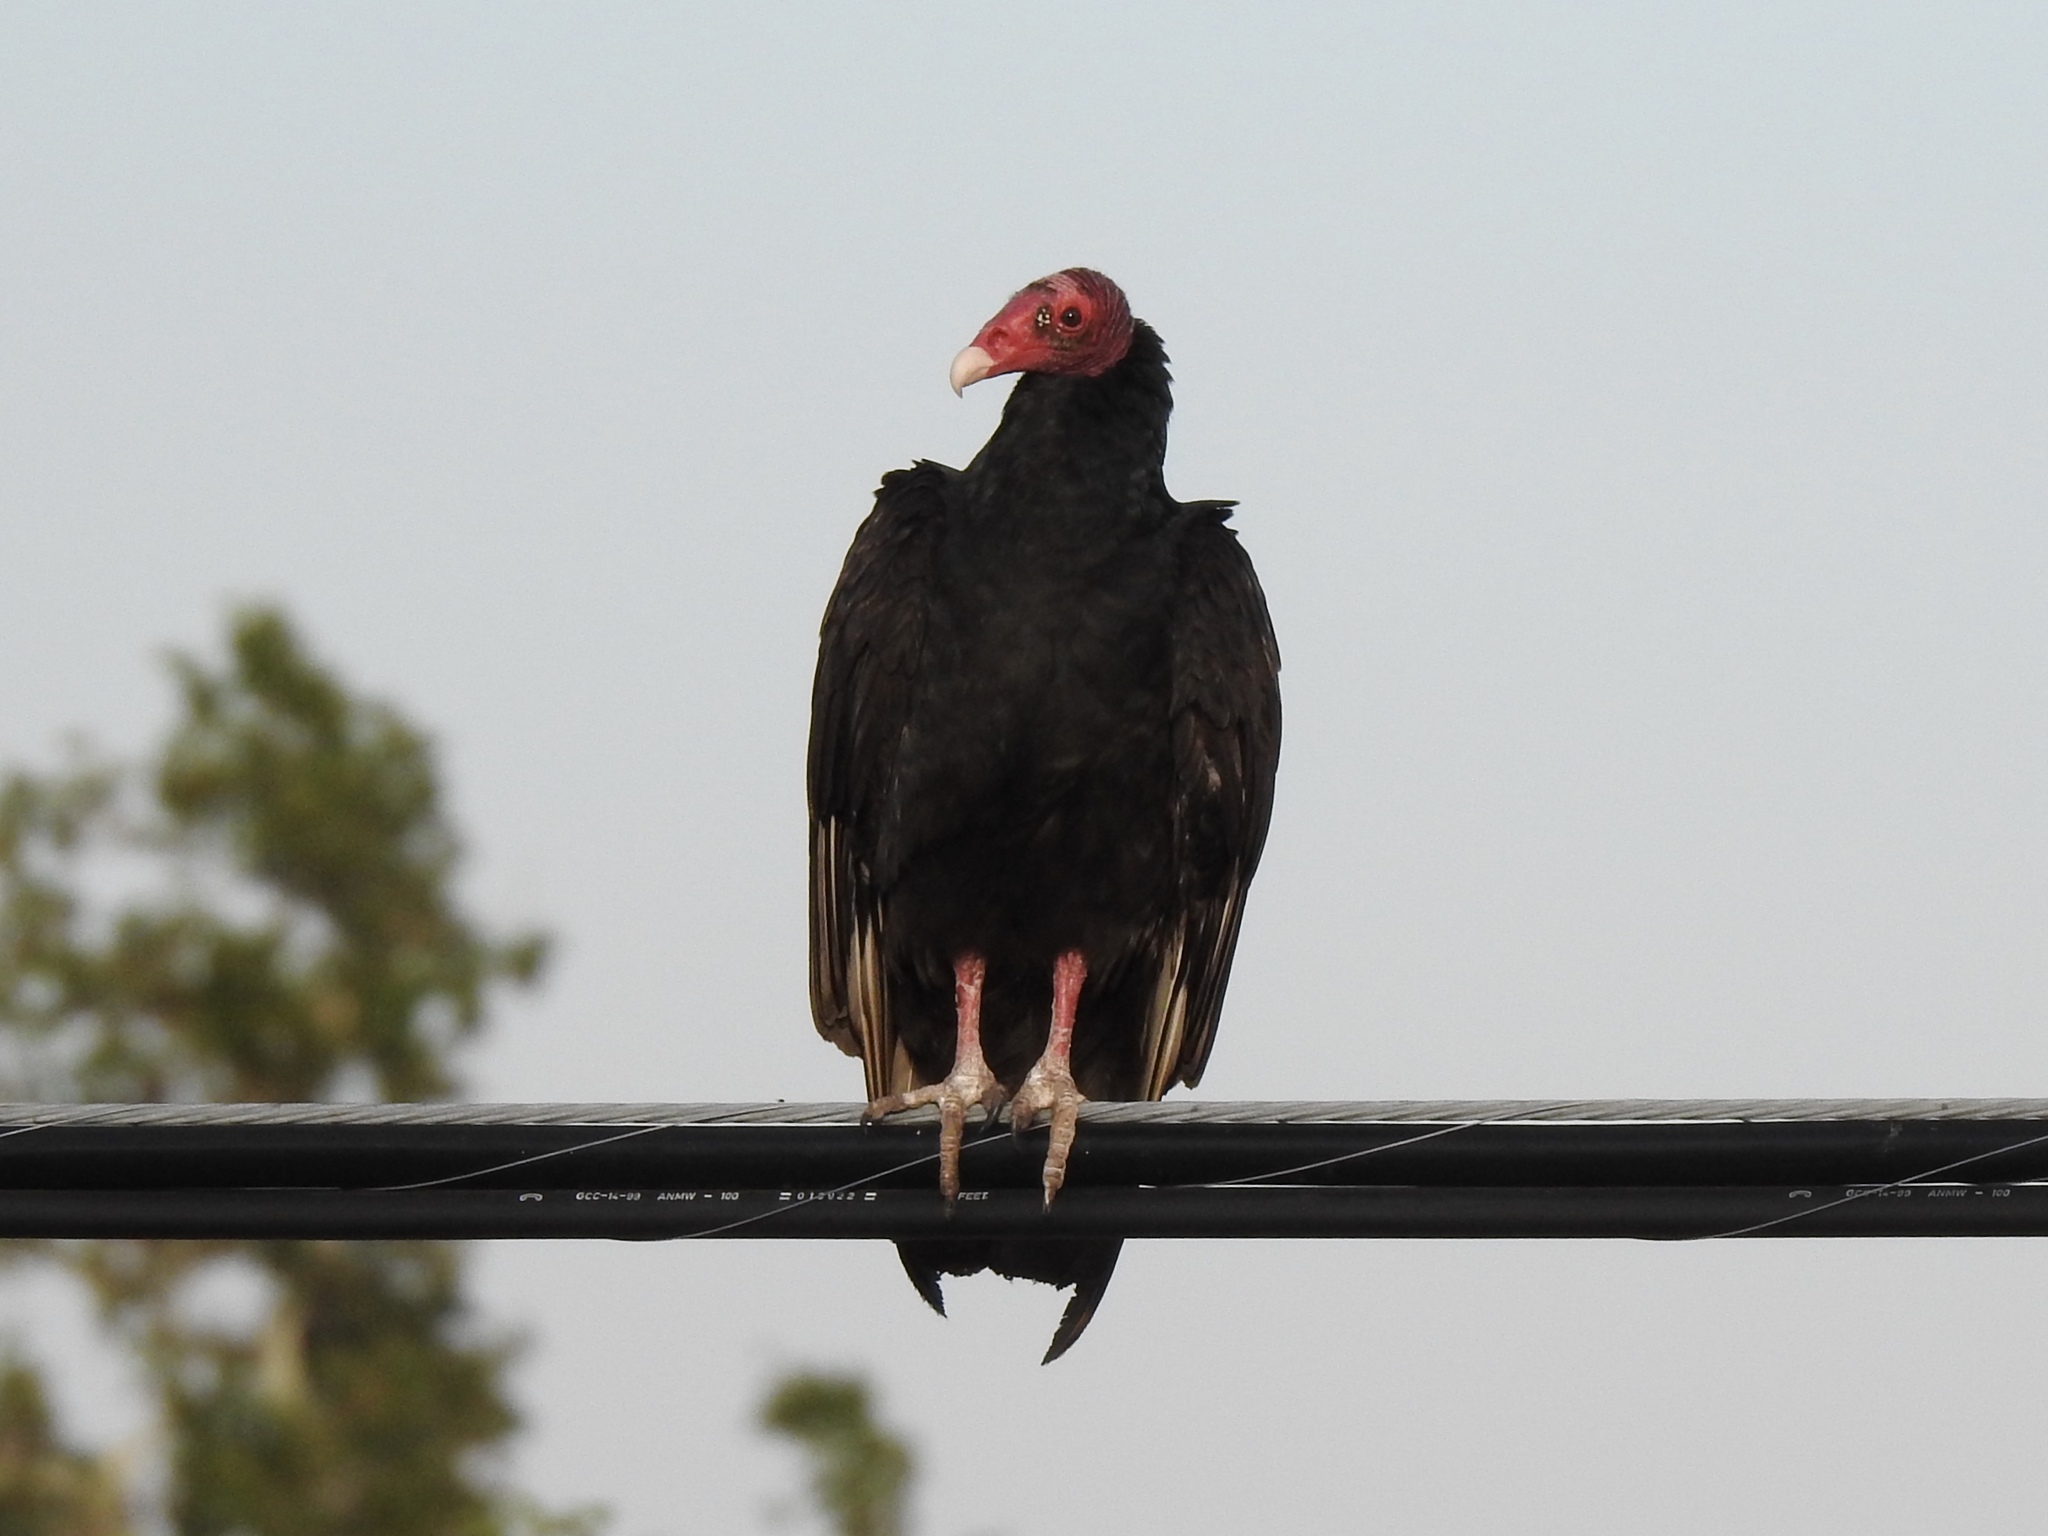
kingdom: Animalia
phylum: Chordata
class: Aves
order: Accipitriformes
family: Cathartidae
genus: Cathartes
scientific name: Cathartes aura
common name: Turkey vulture
